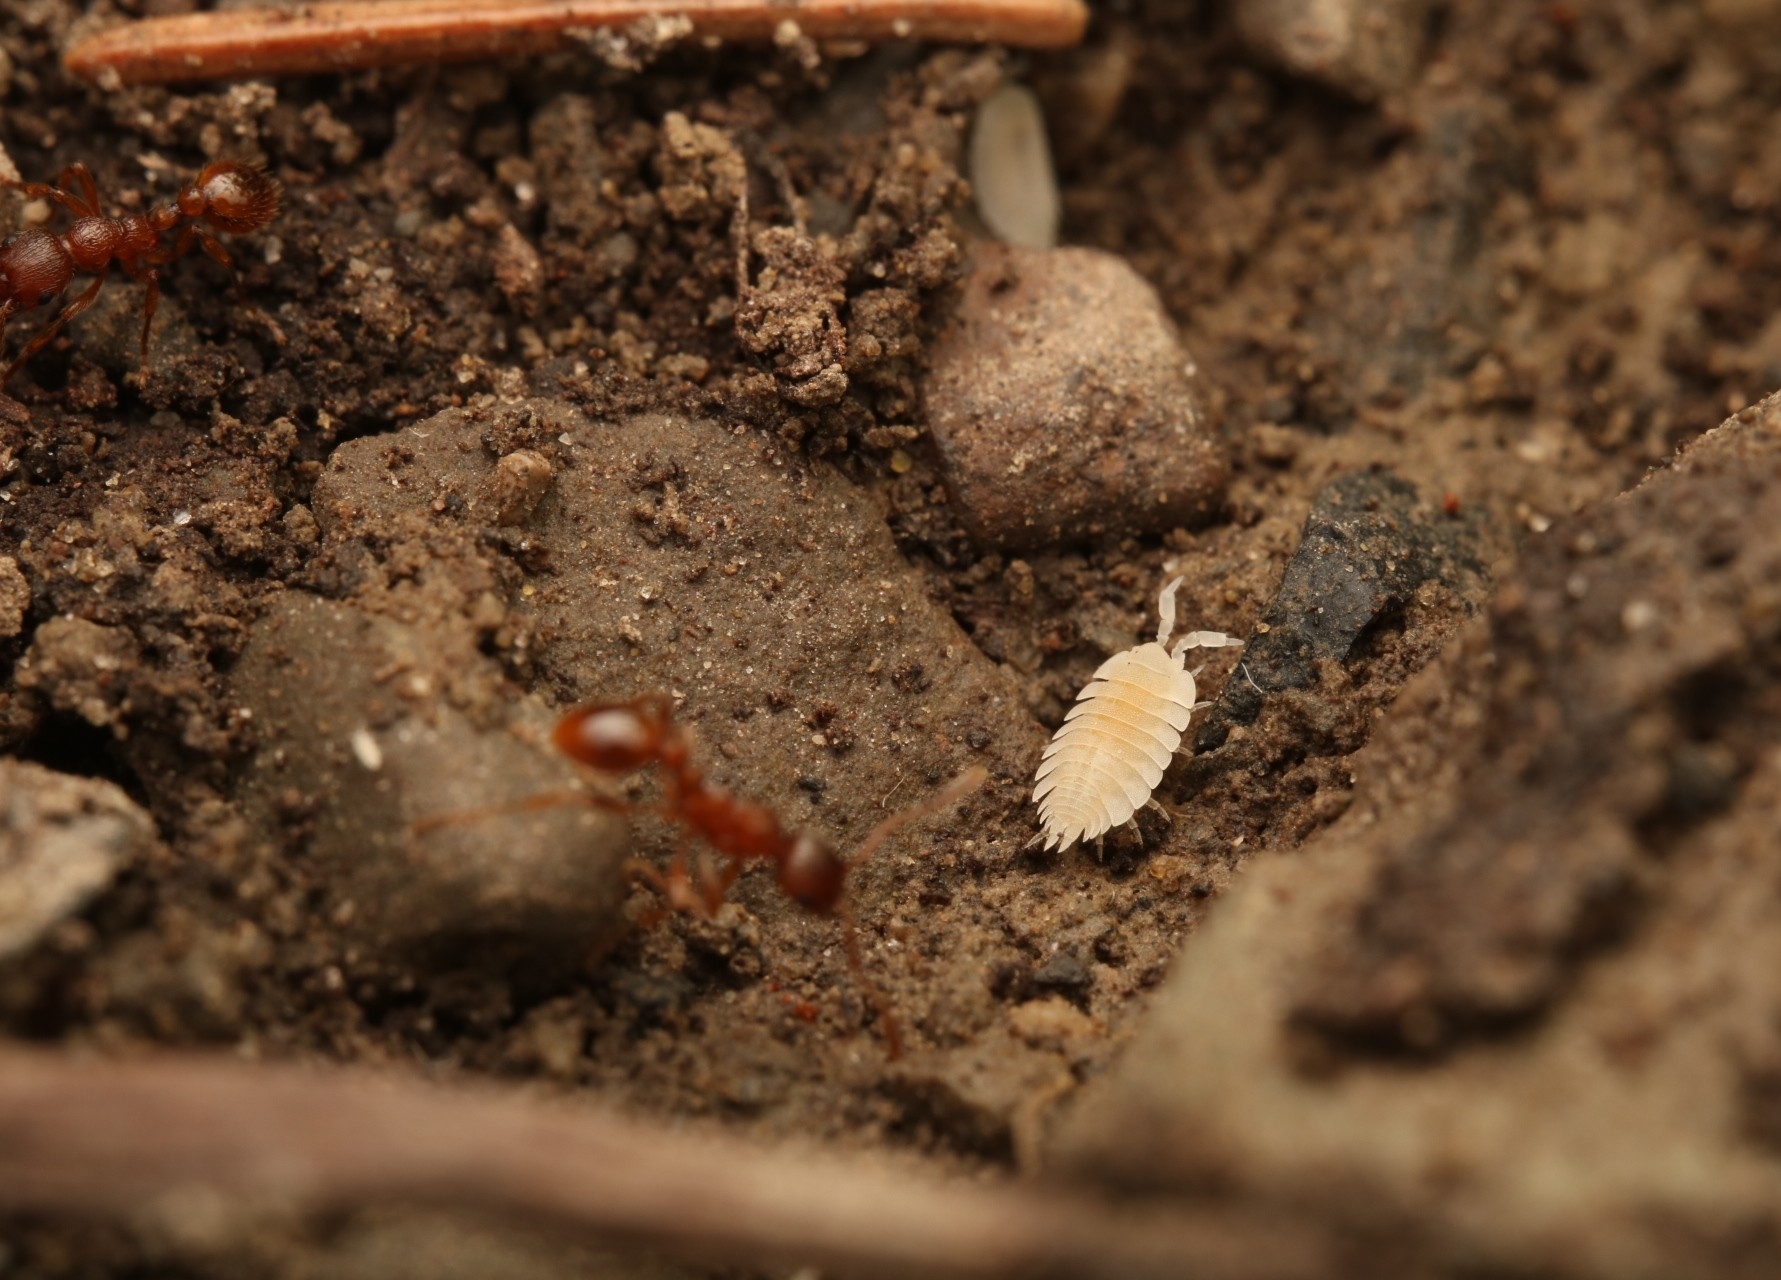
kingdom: Animalia
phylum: Arthropoda
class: Malacostraca
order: Isopoda
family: Platyarthridae
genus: Platyarthrus
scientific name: Platyarthrus hoffmannseggii
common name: Ant woodlouse
